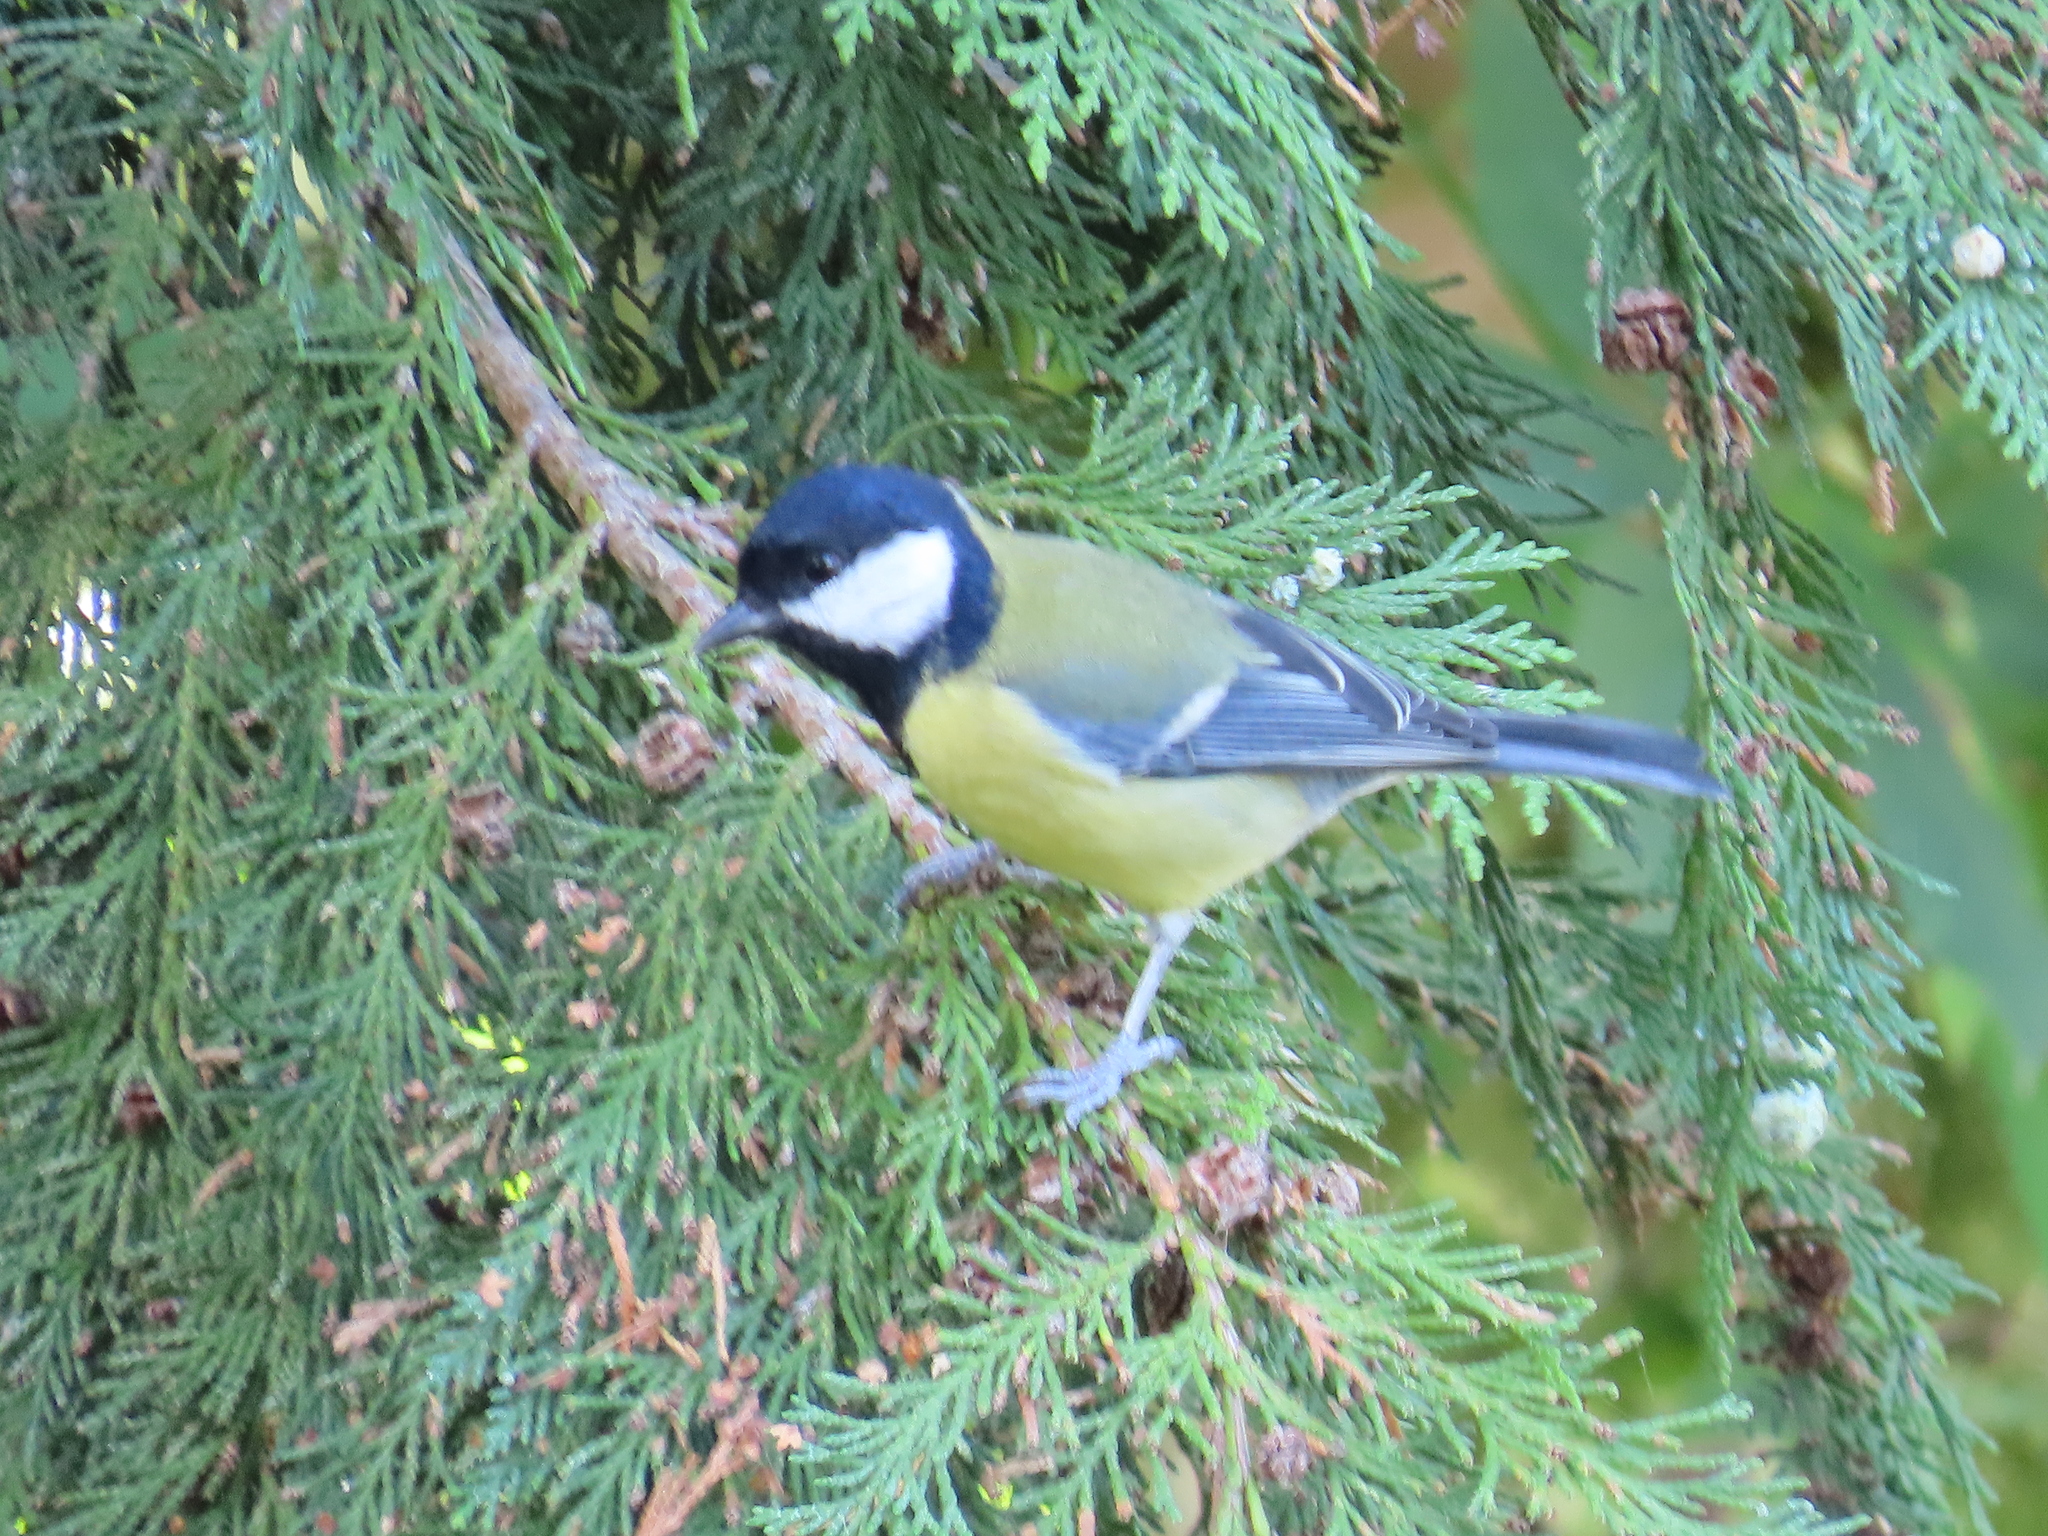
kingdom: Animalia
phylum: Chordata
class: Aves
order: Passeriformes
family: Paridae
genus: Parus
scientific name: Parus major
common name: Great tit
